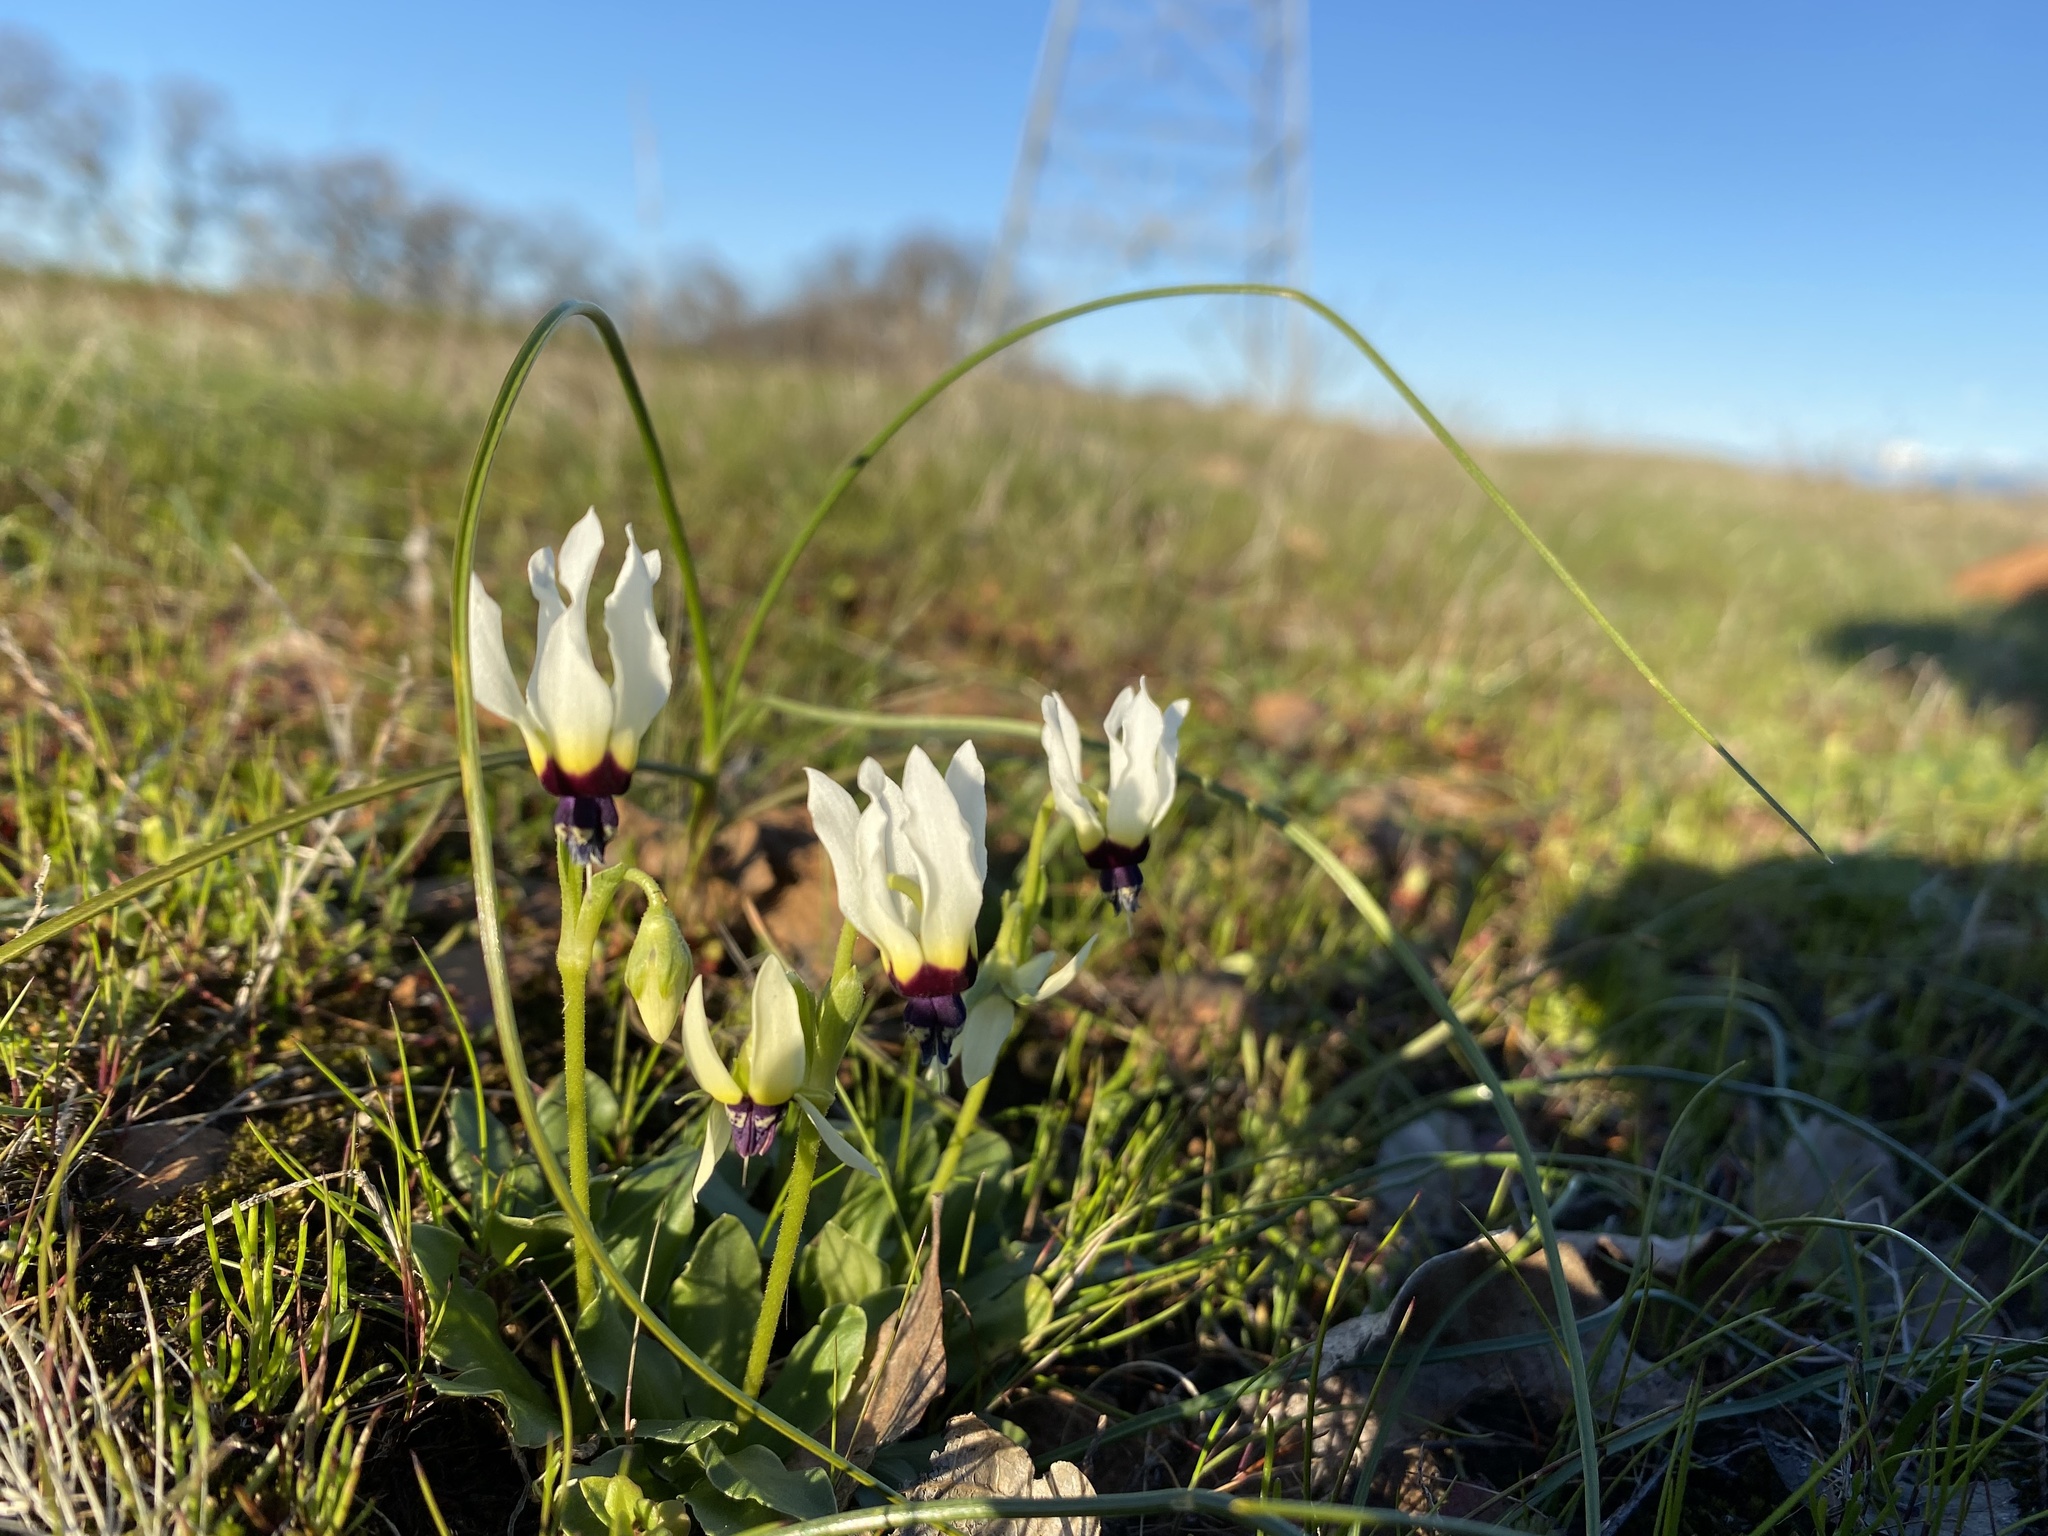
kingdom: Plantae
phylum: Tracheophyta
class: Magnoliopsida
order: Ericales
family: Primulaceae
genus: Dodecatheon
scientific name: Dodecatheon clevelandii
